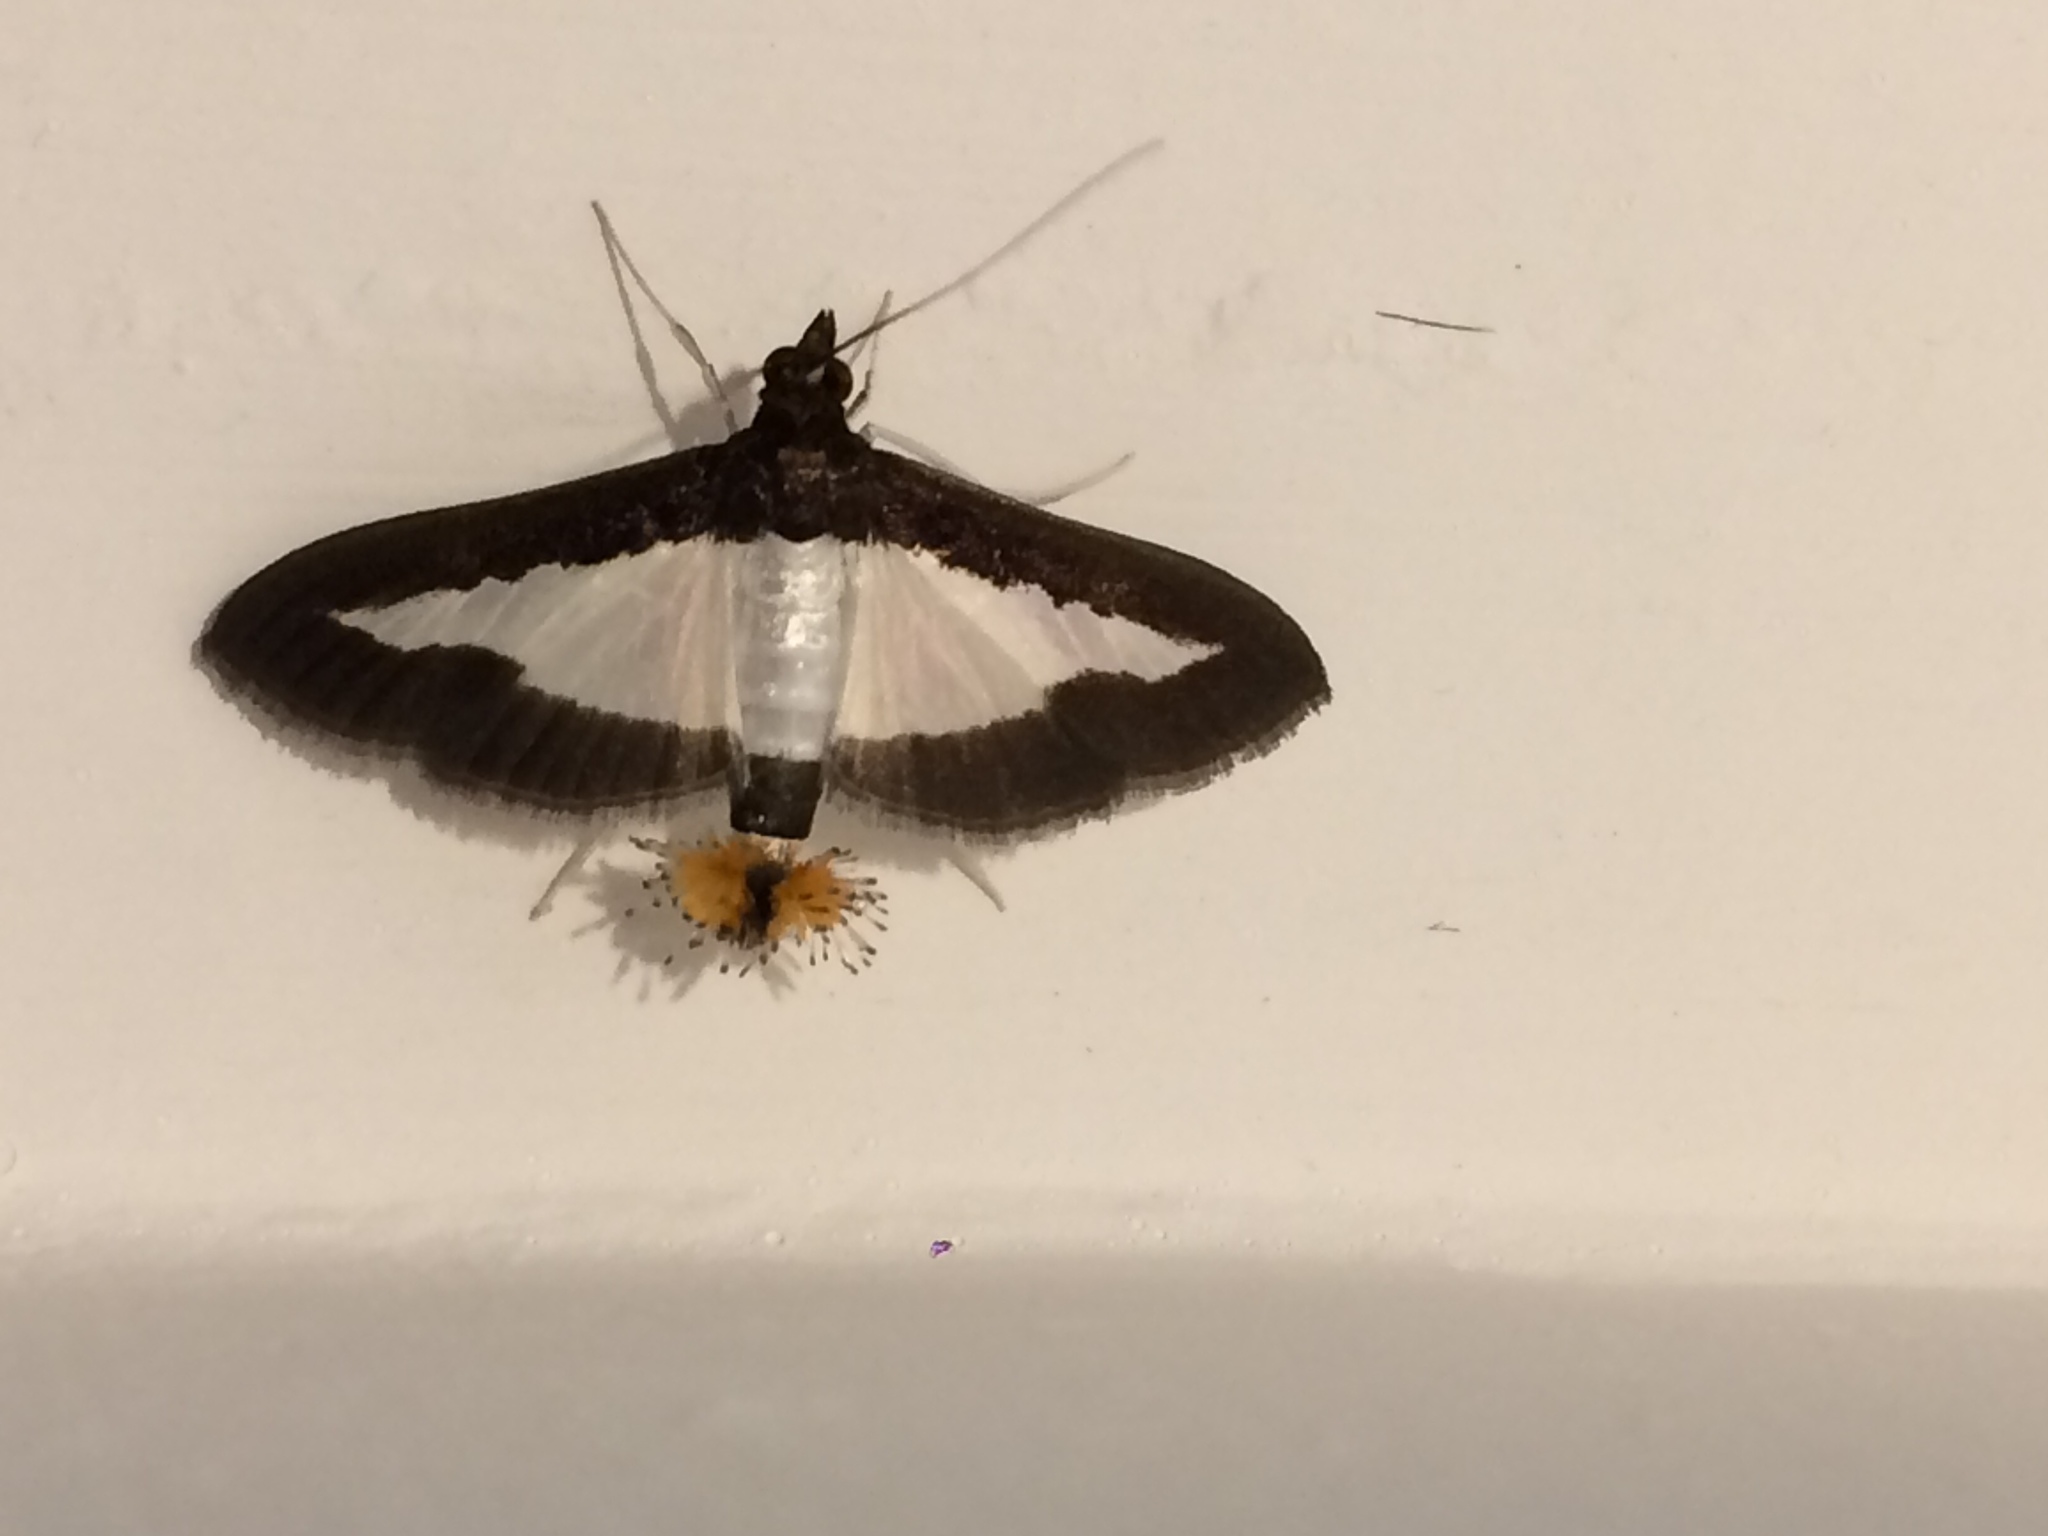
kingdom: Animalia
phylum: Arthropoda
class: Insecta
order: Lepidoptera
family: Crambidae
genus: Diaphania
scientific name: Diaphania indica
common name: Cucumber moth
